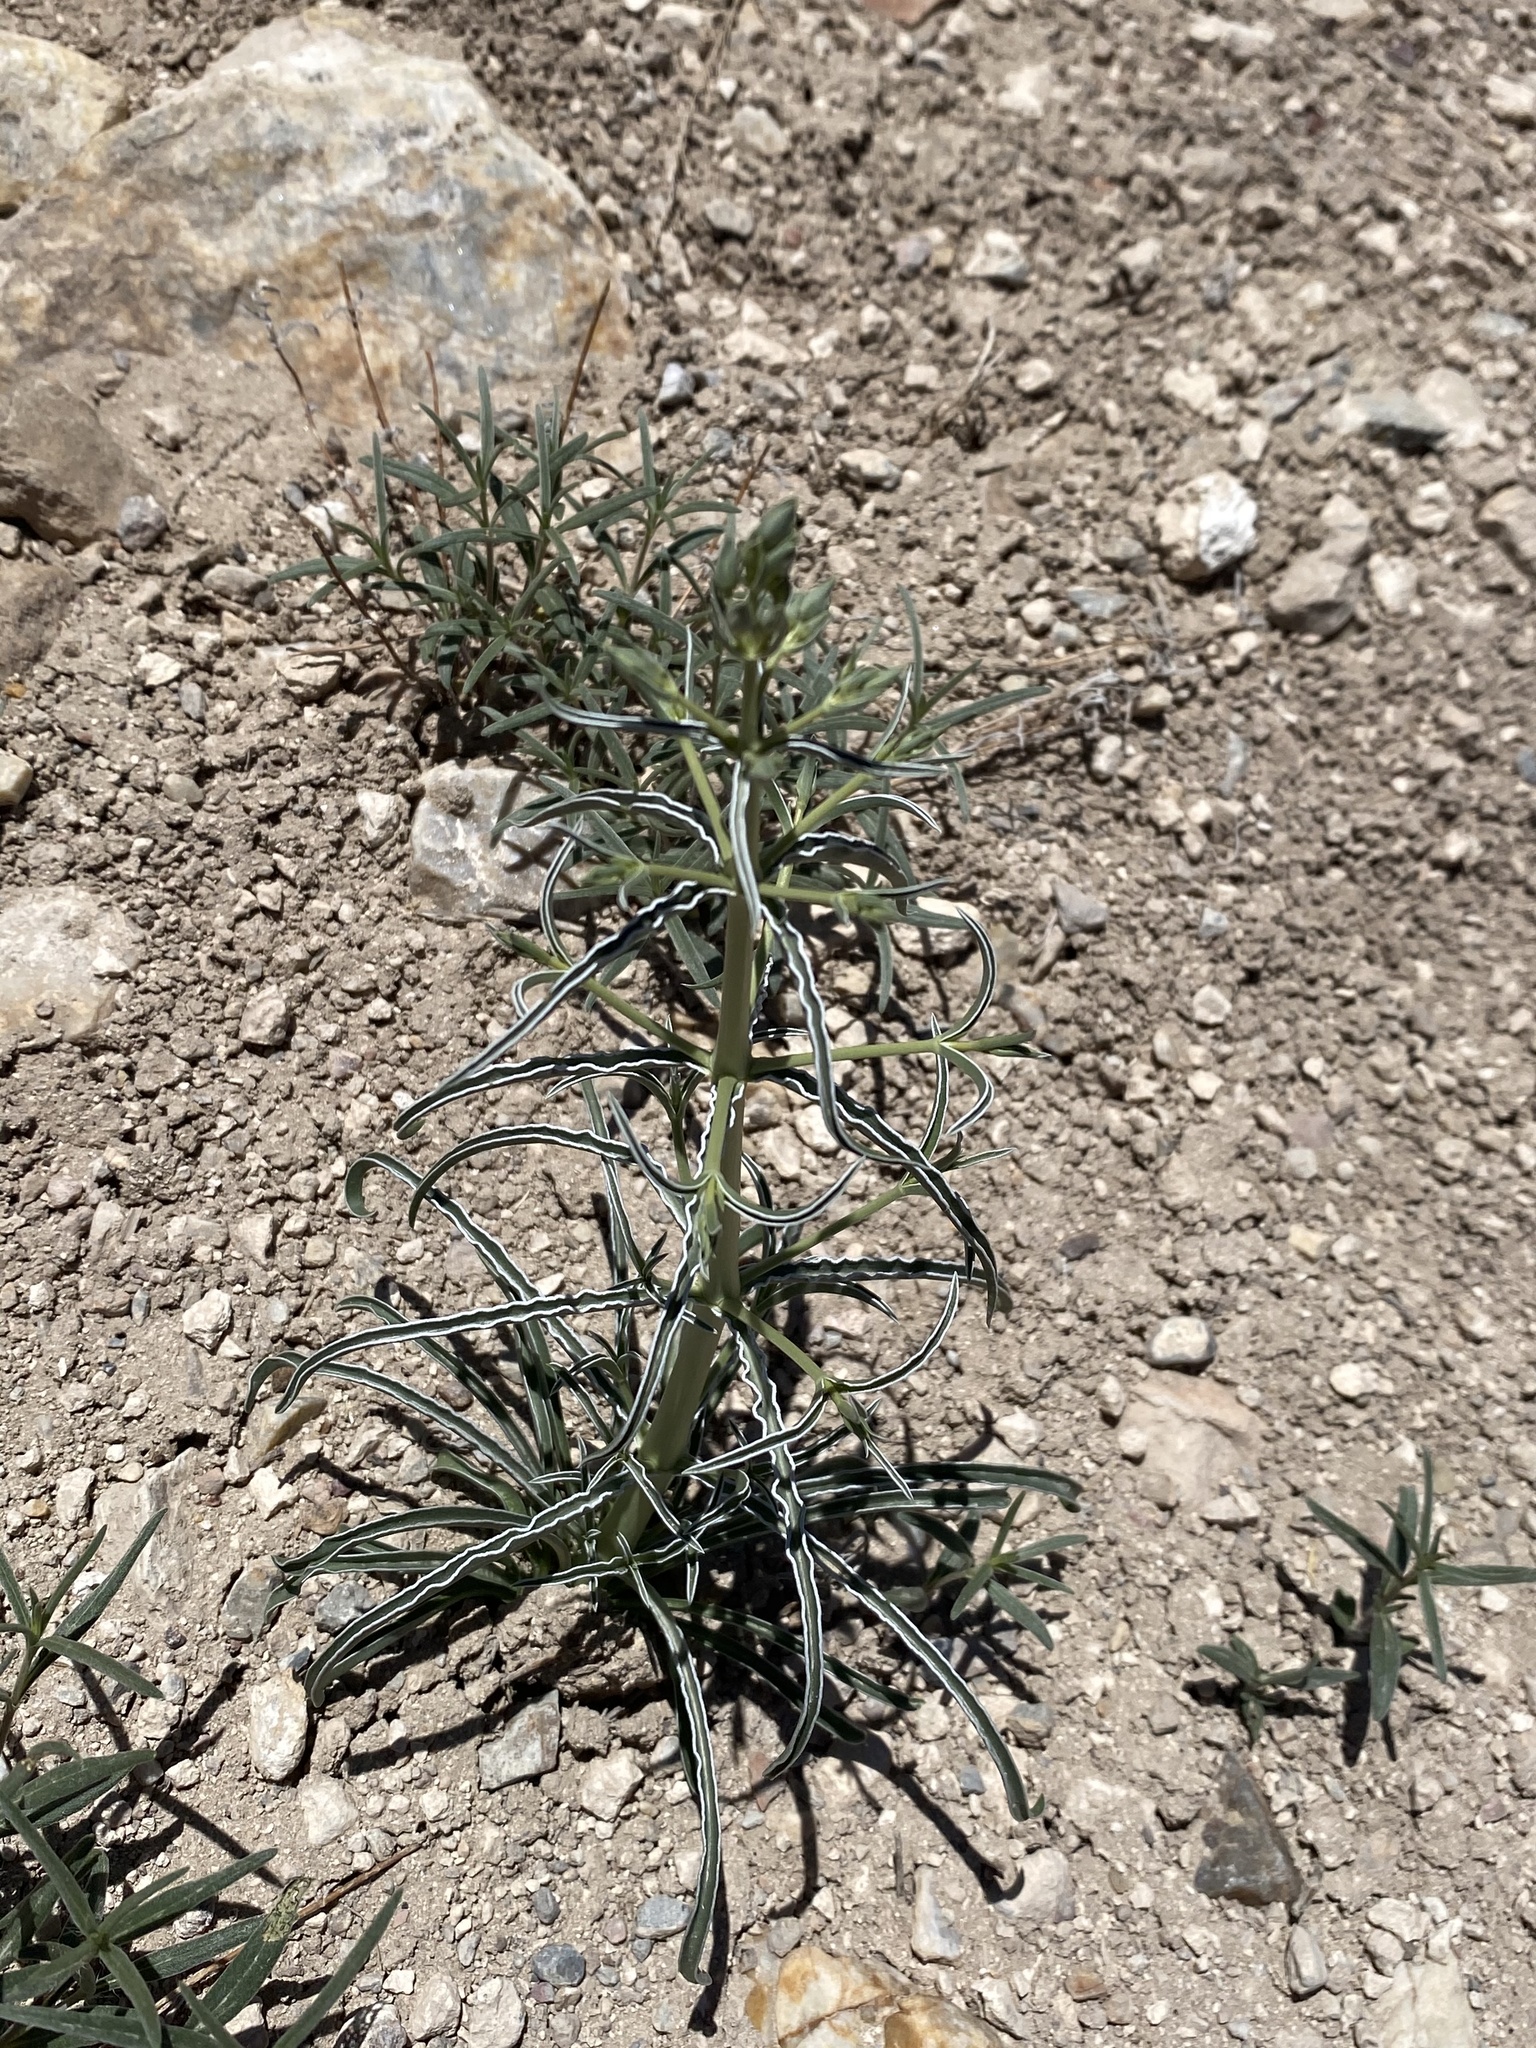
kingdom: Plantae
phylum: Tracheophyta
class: Magnoliopsida
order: Gentianales
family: Gentianaceae
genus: Frasera
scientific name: Frasera albomarginata
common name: Desert frasera
